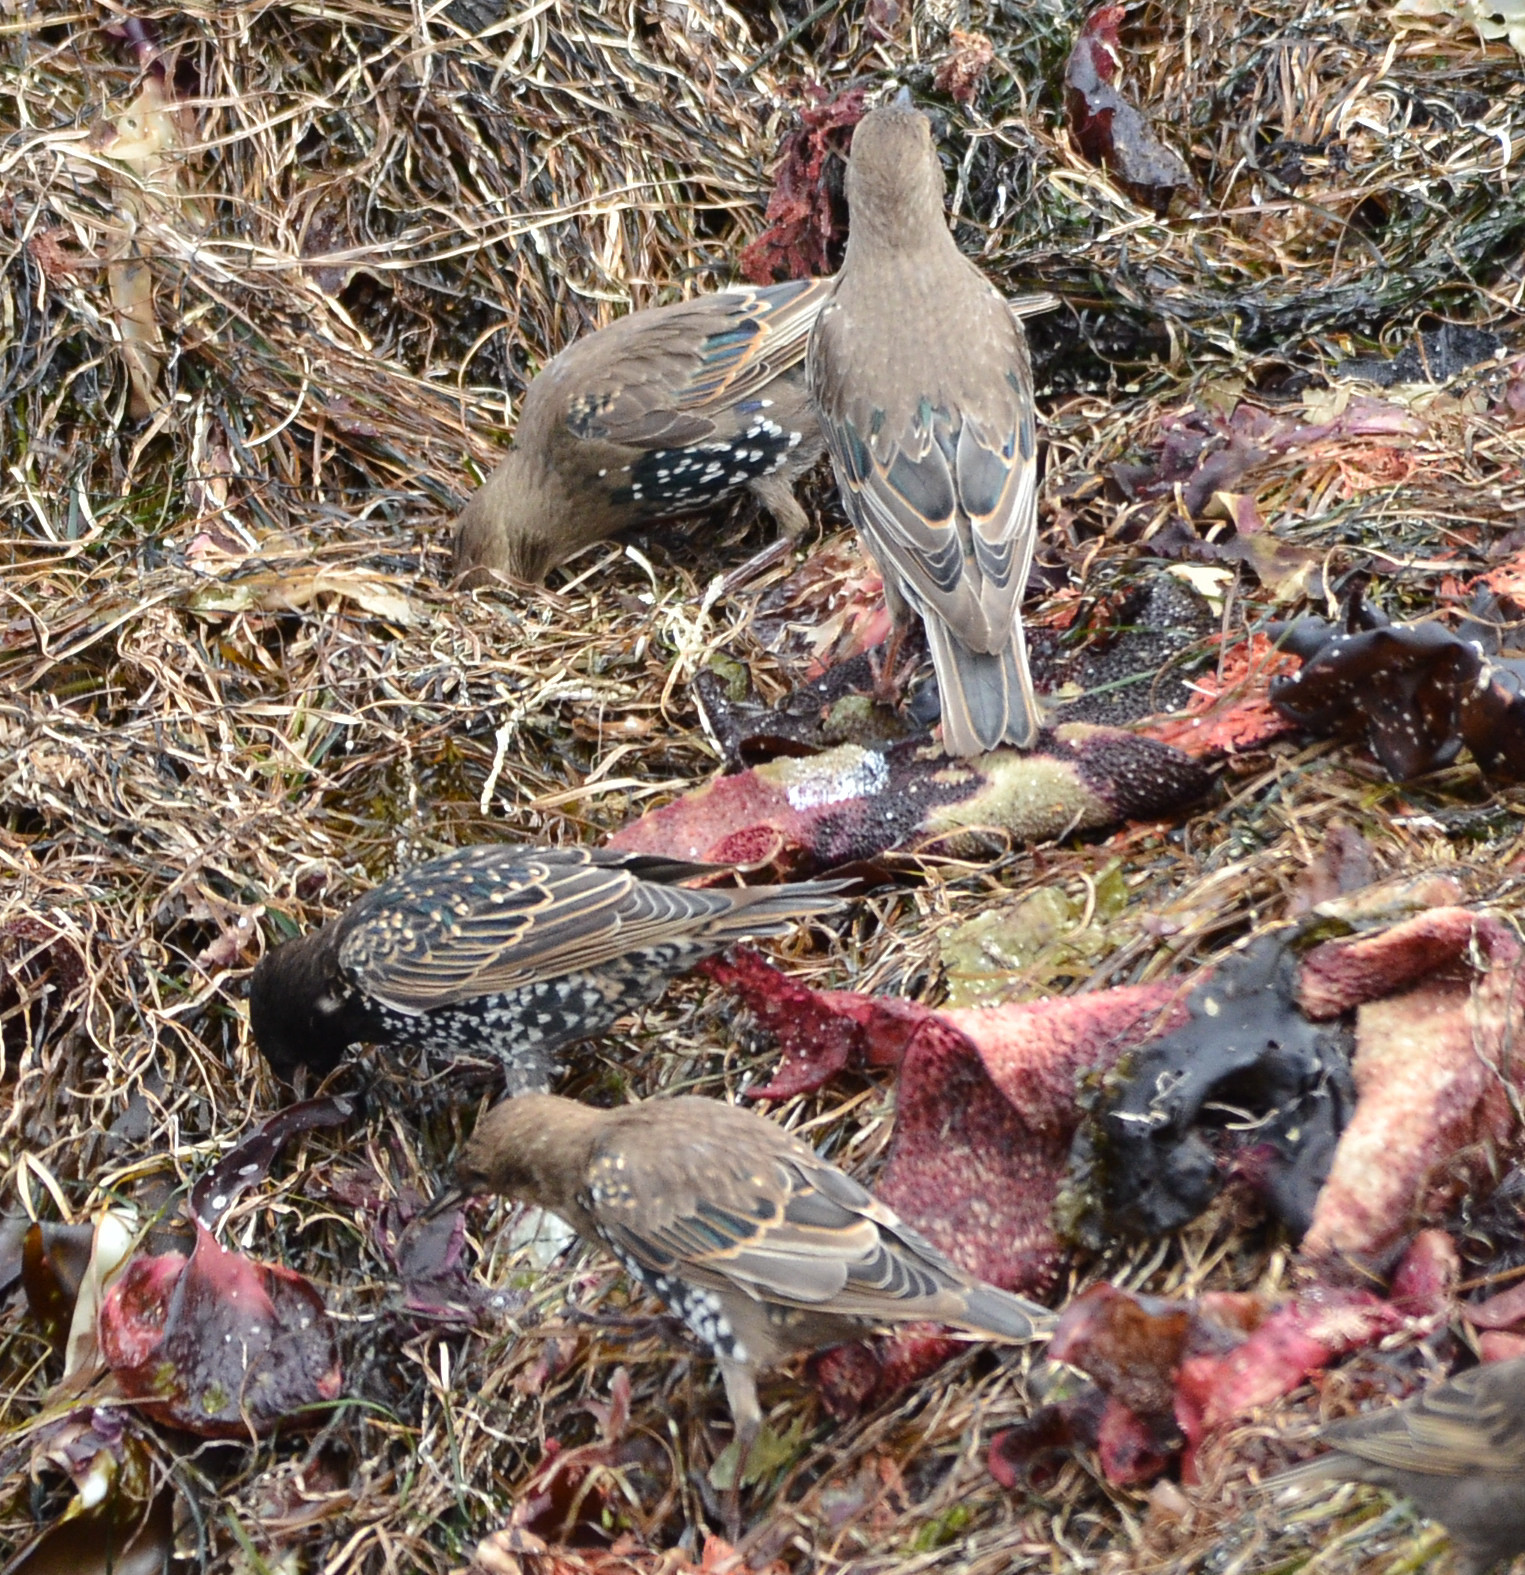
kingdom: Animalia
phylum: Chordata
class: Aves
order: Passeriformes
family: Sturnidae
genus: Sturnus
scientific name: Sturnus vulgaris
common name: Common starling
